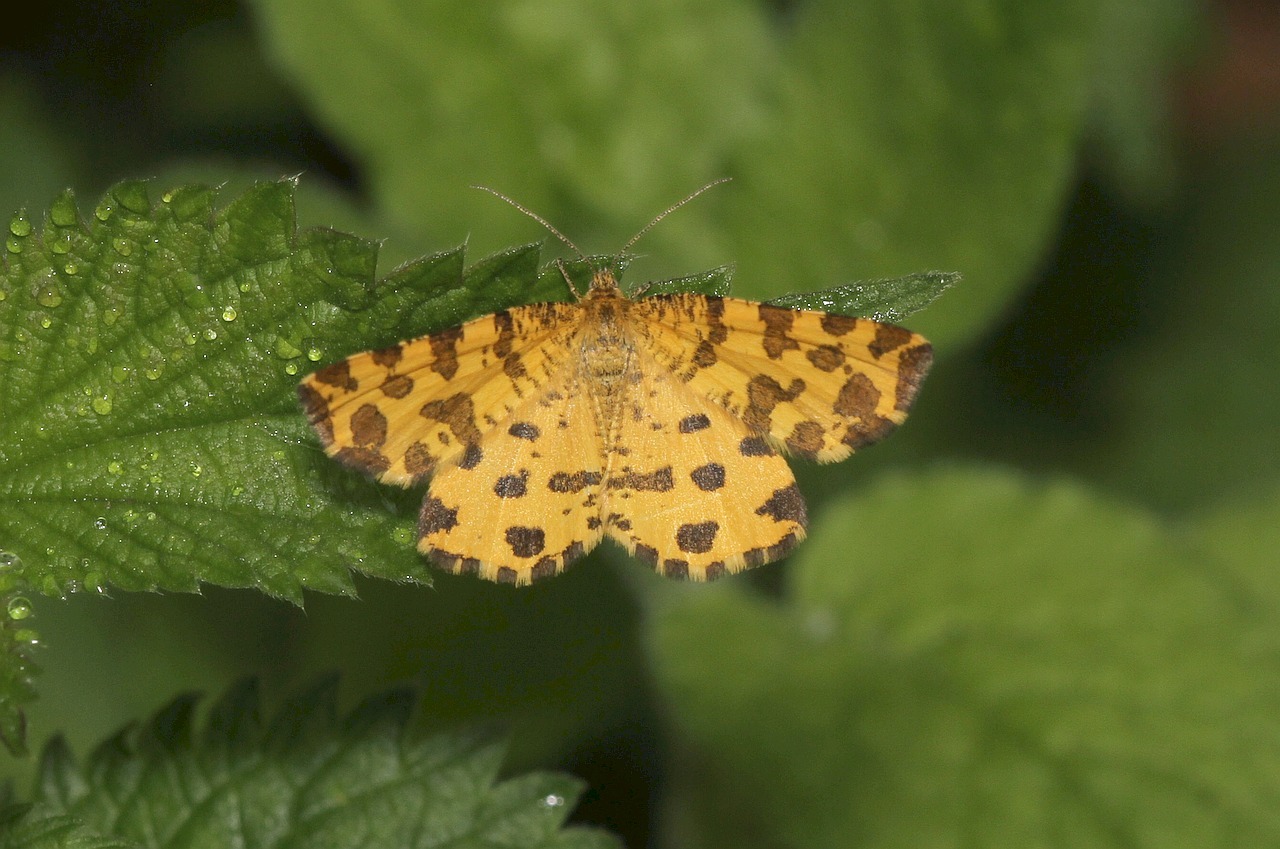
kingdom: Animalia
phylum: Arthropoda
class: Insecta
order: Lepidoptera
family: Geometridae
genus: Pseudopanthera
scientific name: Pseudopanthera macularia
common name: Speckled yellow
